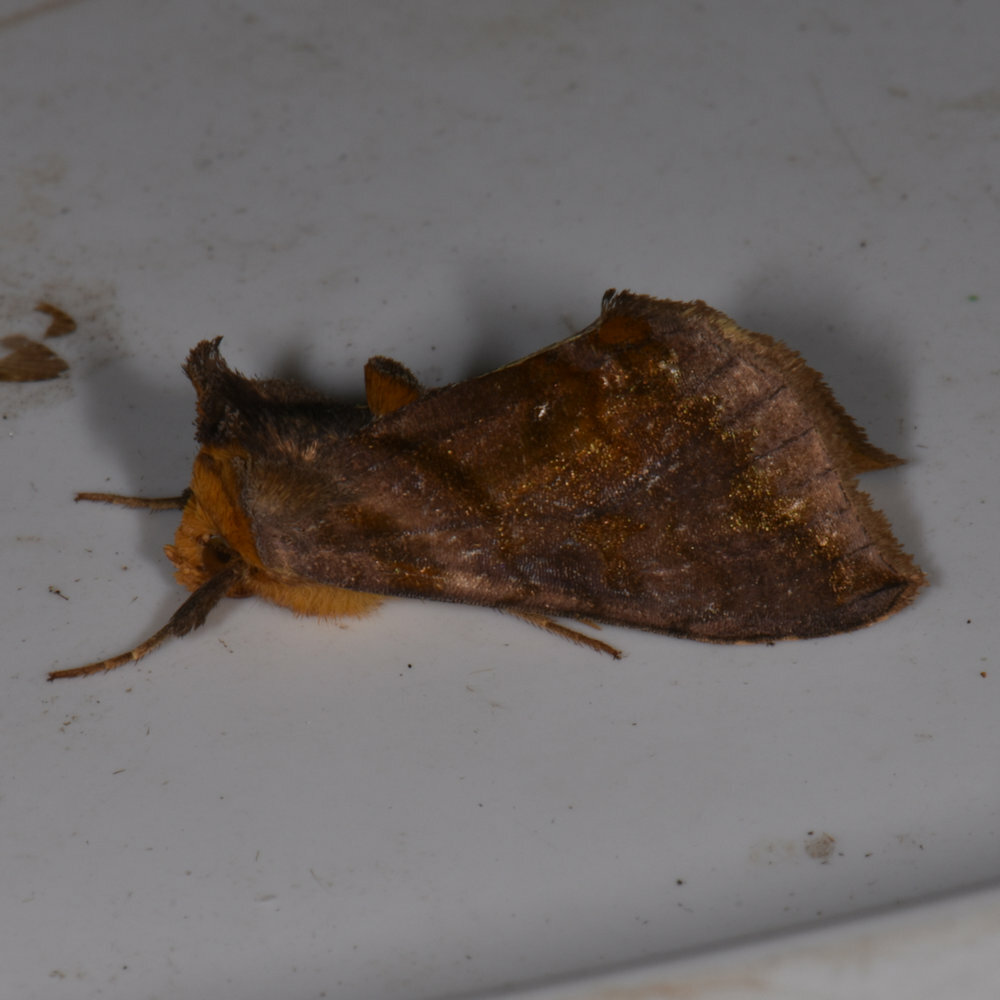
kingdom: Animalia
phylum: Arthropoda
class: Insecta
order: Lepidoptera
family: Noctuidae
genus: Allagrapha
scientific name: Allagrapha aerea
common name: Unspotted looper moth
